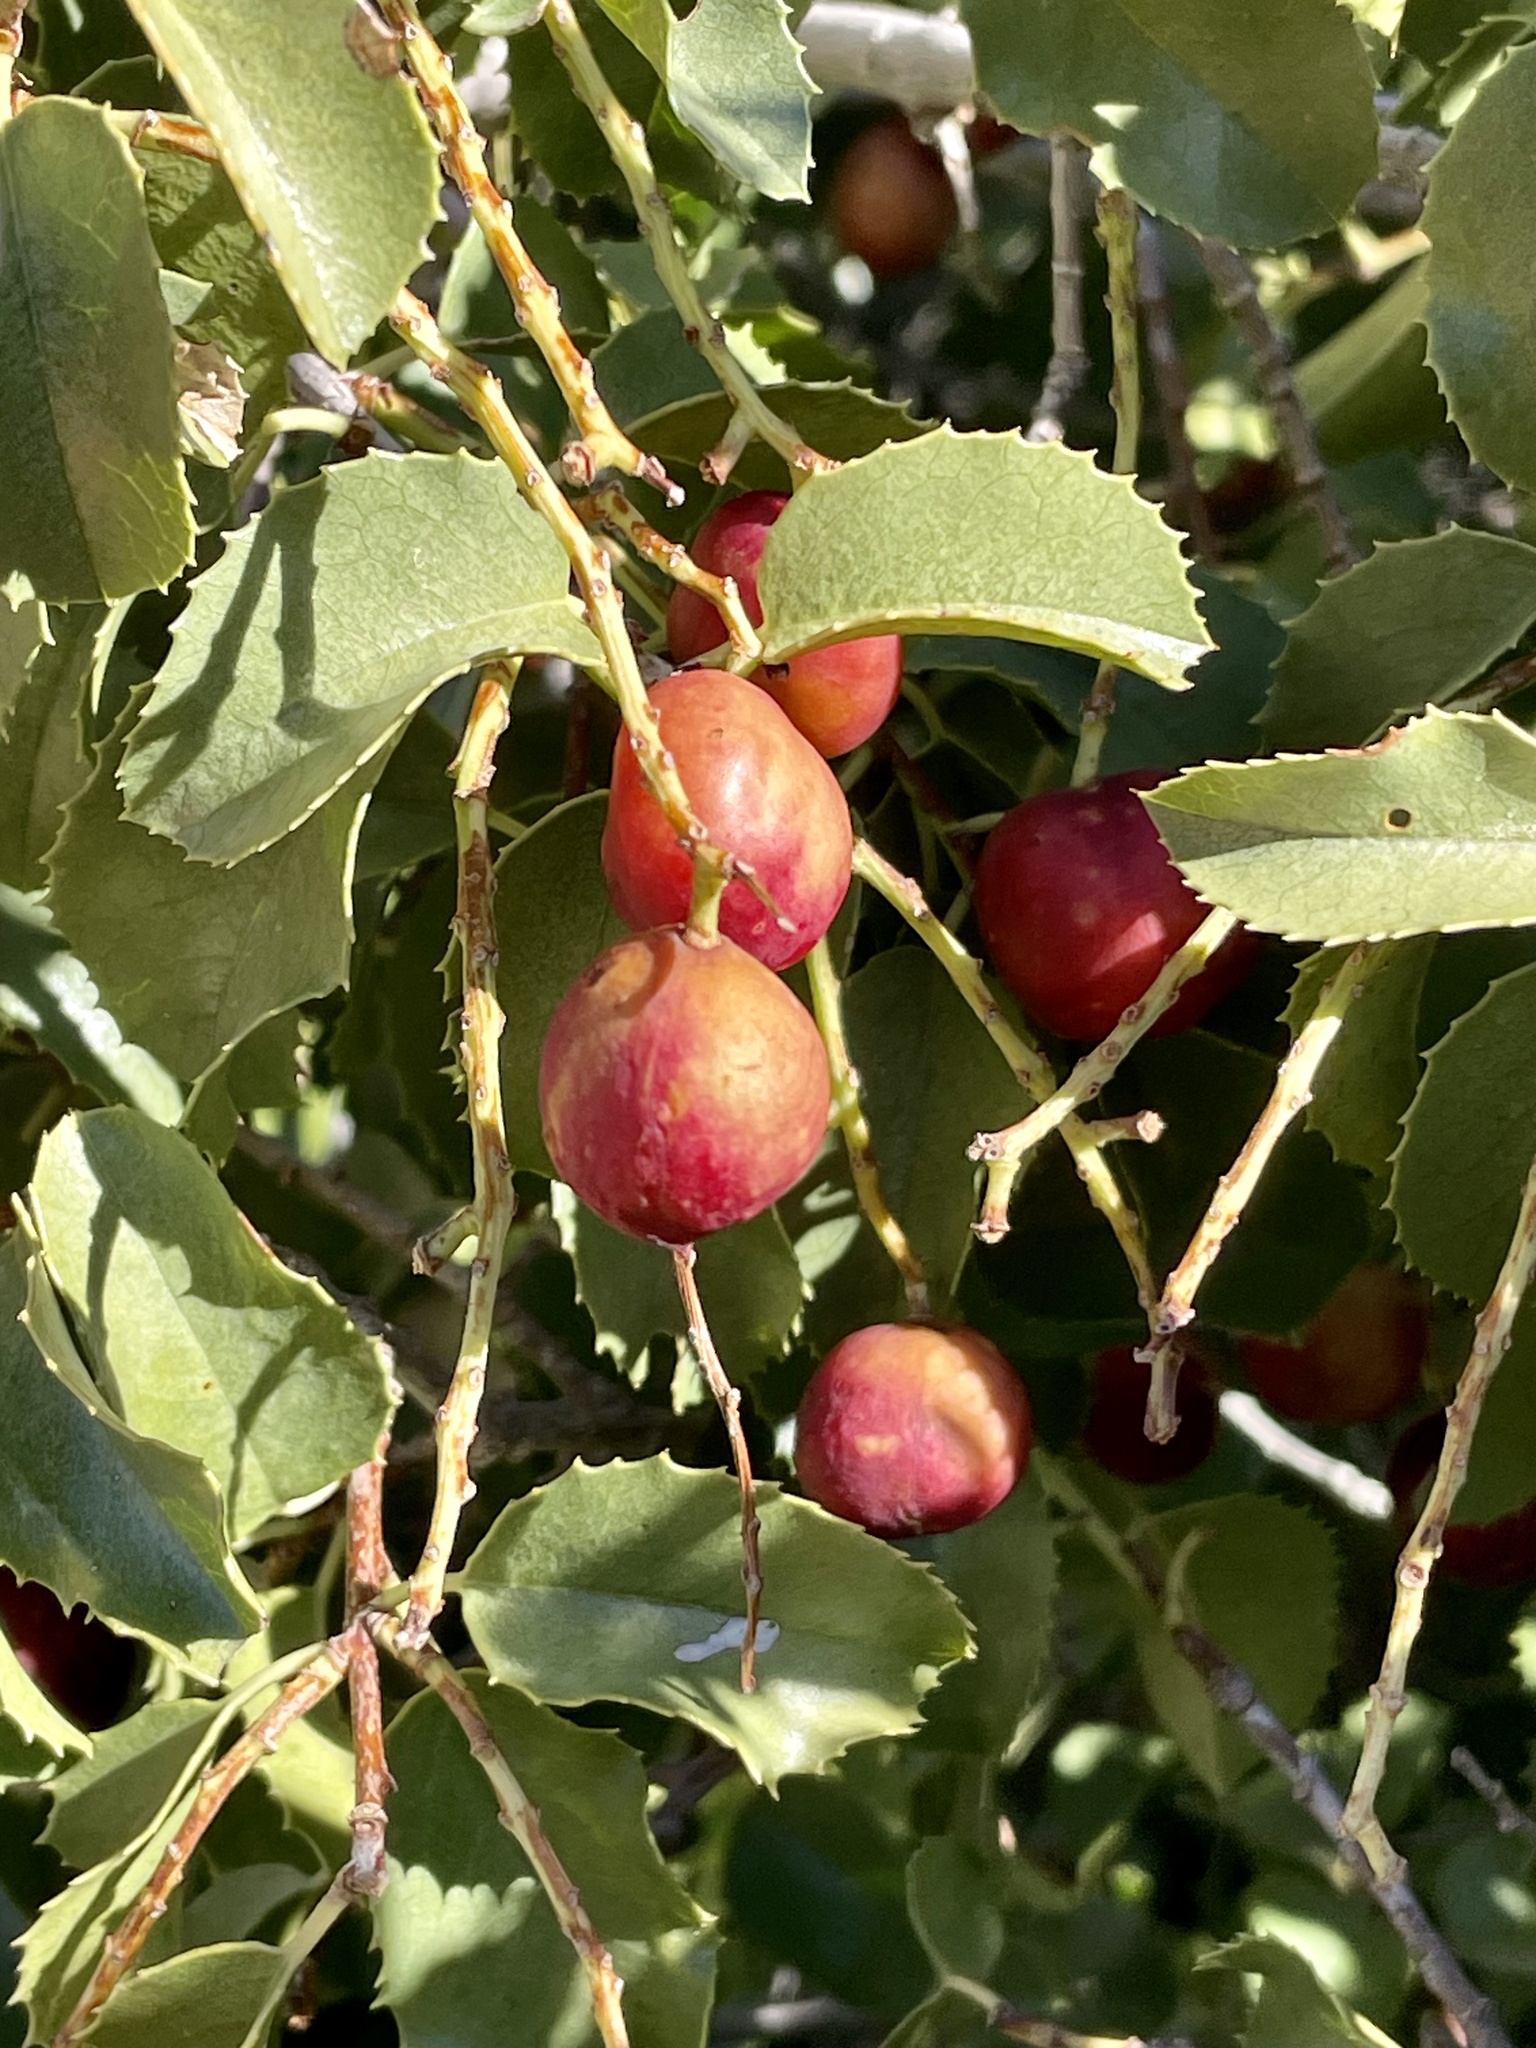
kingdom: Plantae
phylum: Tracheophyta
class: Magnoliopsida
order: Rosales
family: Rosaceae
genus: Prunus
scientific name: Prunus ilicifolia
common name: Hollyleaf cherry
